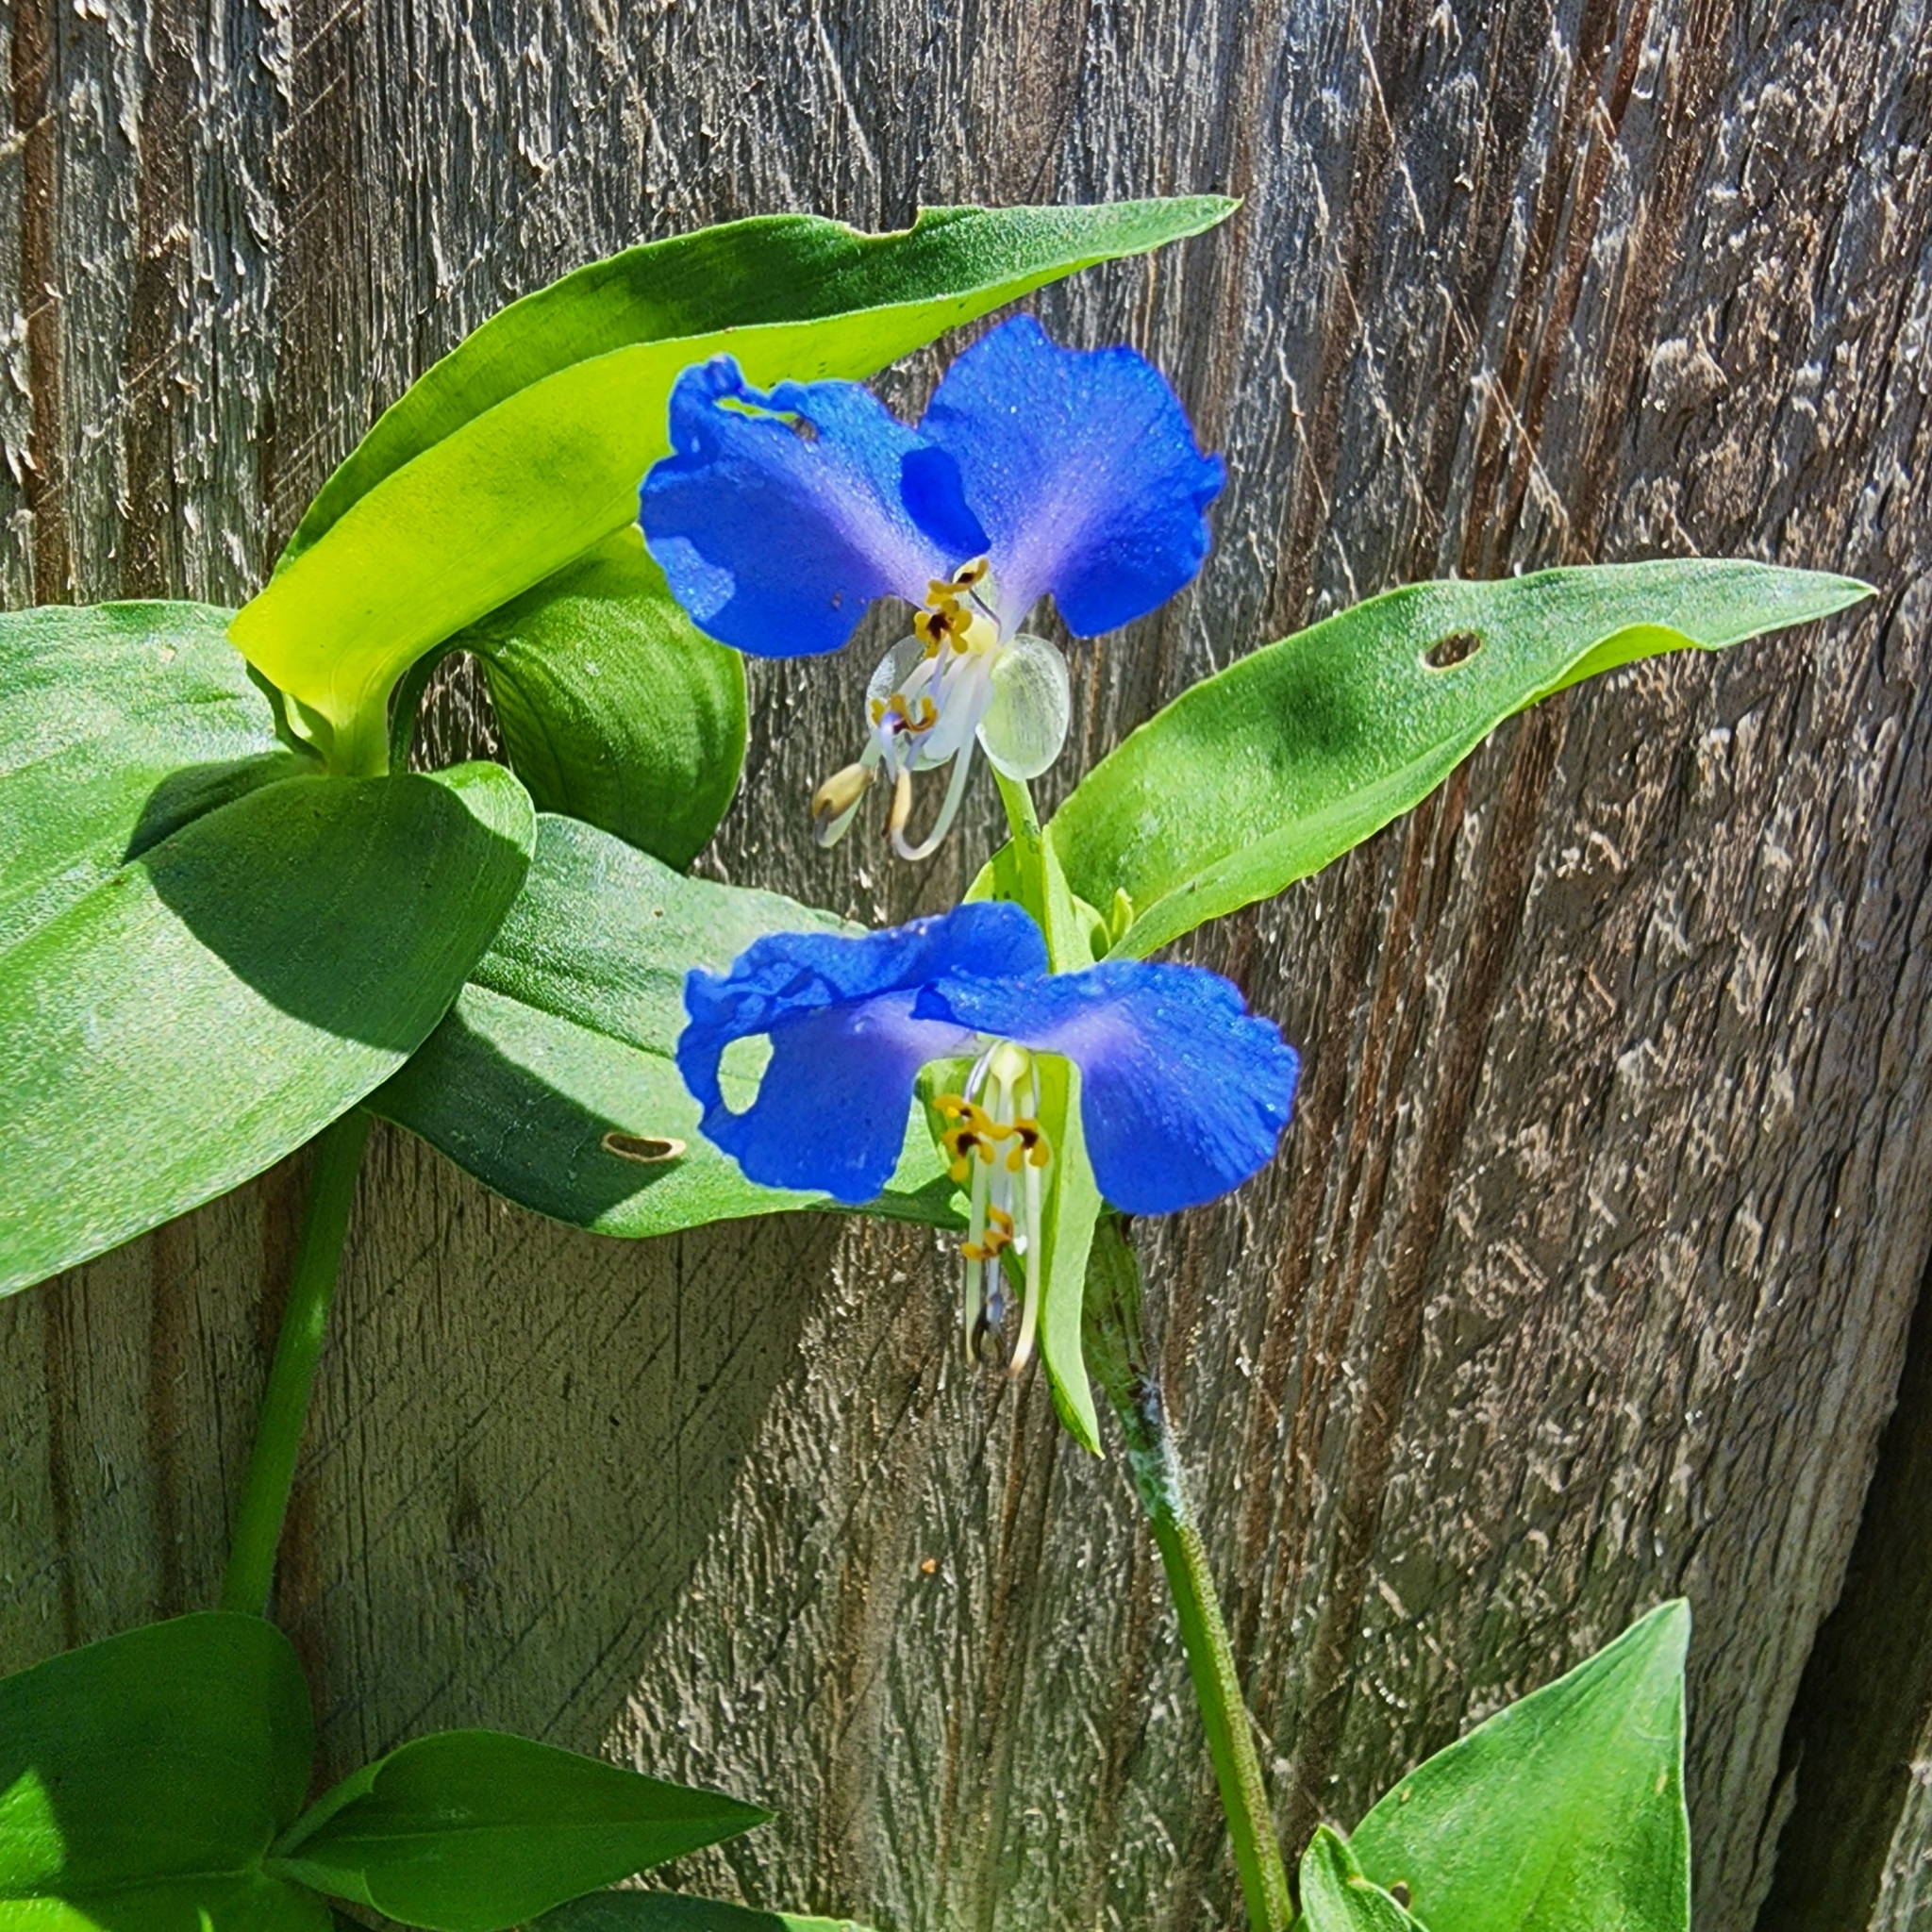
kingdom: Plantae
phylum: Tracheophyta
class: Liliopsida
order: Commelinales
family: Commelinaceae
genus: Commelina
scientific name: Commelina communis
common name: Asiatic dayflower
